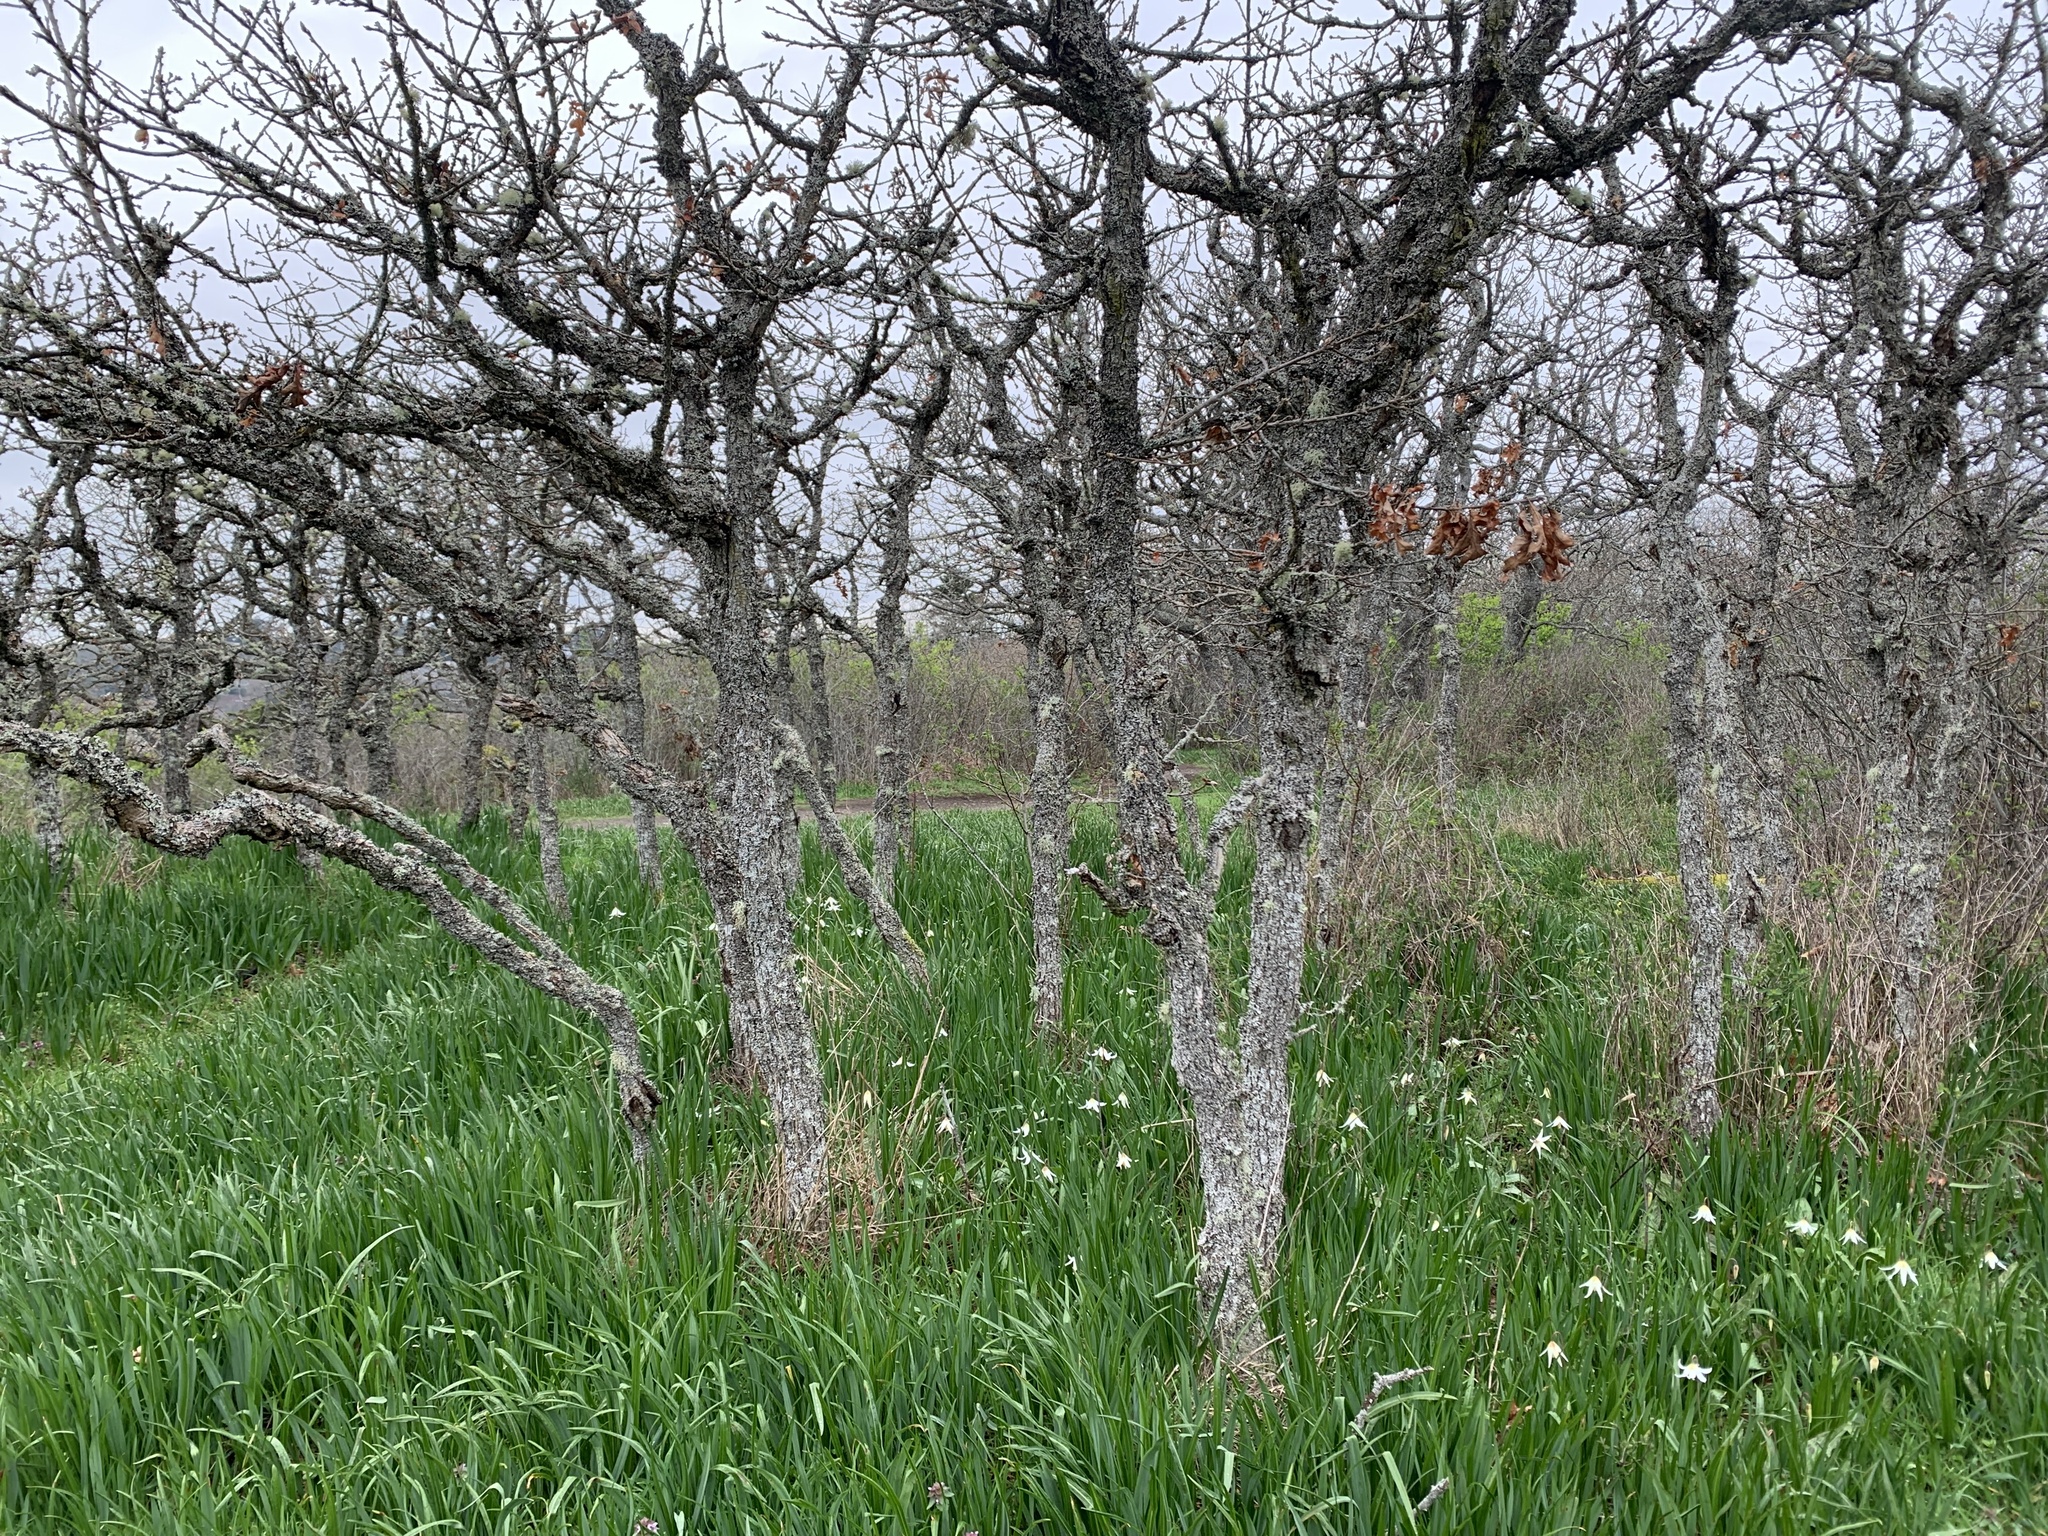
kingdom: Plantae
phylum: Tracheophyta
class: Magnoliopsida
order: Fagales
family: Fagaceae
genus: Quercus
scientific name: Quercus garryana
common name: Garry oak
